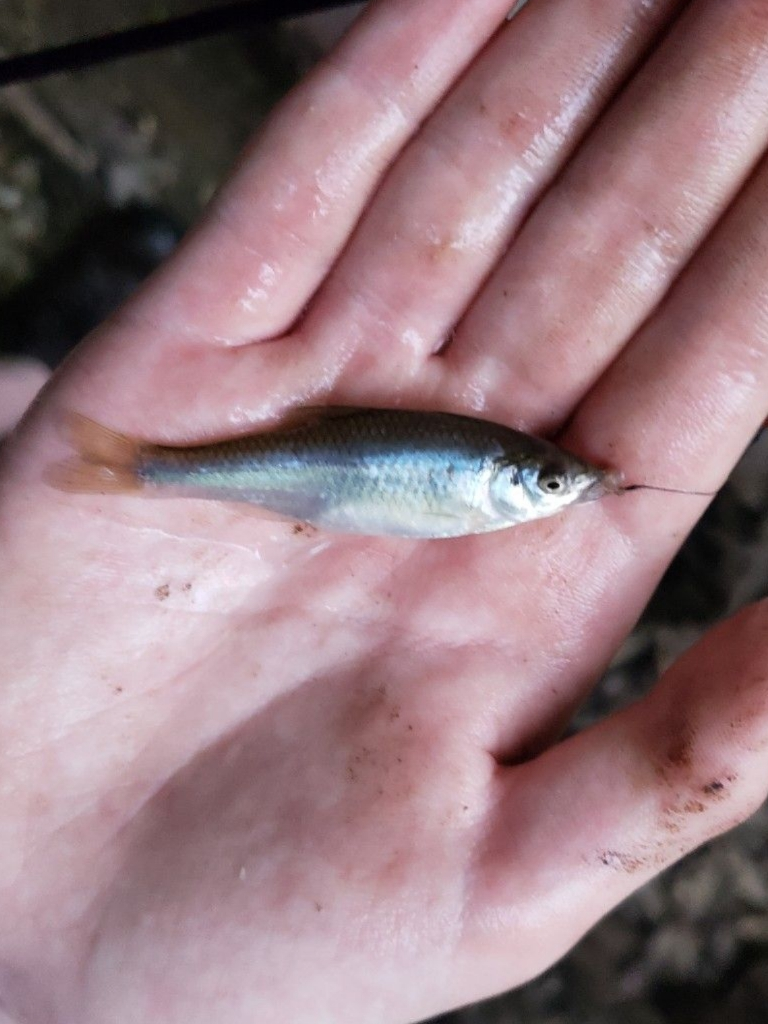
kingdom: Animalia
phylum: Chordata
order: Cypriniformes
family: Cyprinidae
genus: Cyprinella
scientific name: Cyprinella spiloptera
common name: Spotfin shiner
